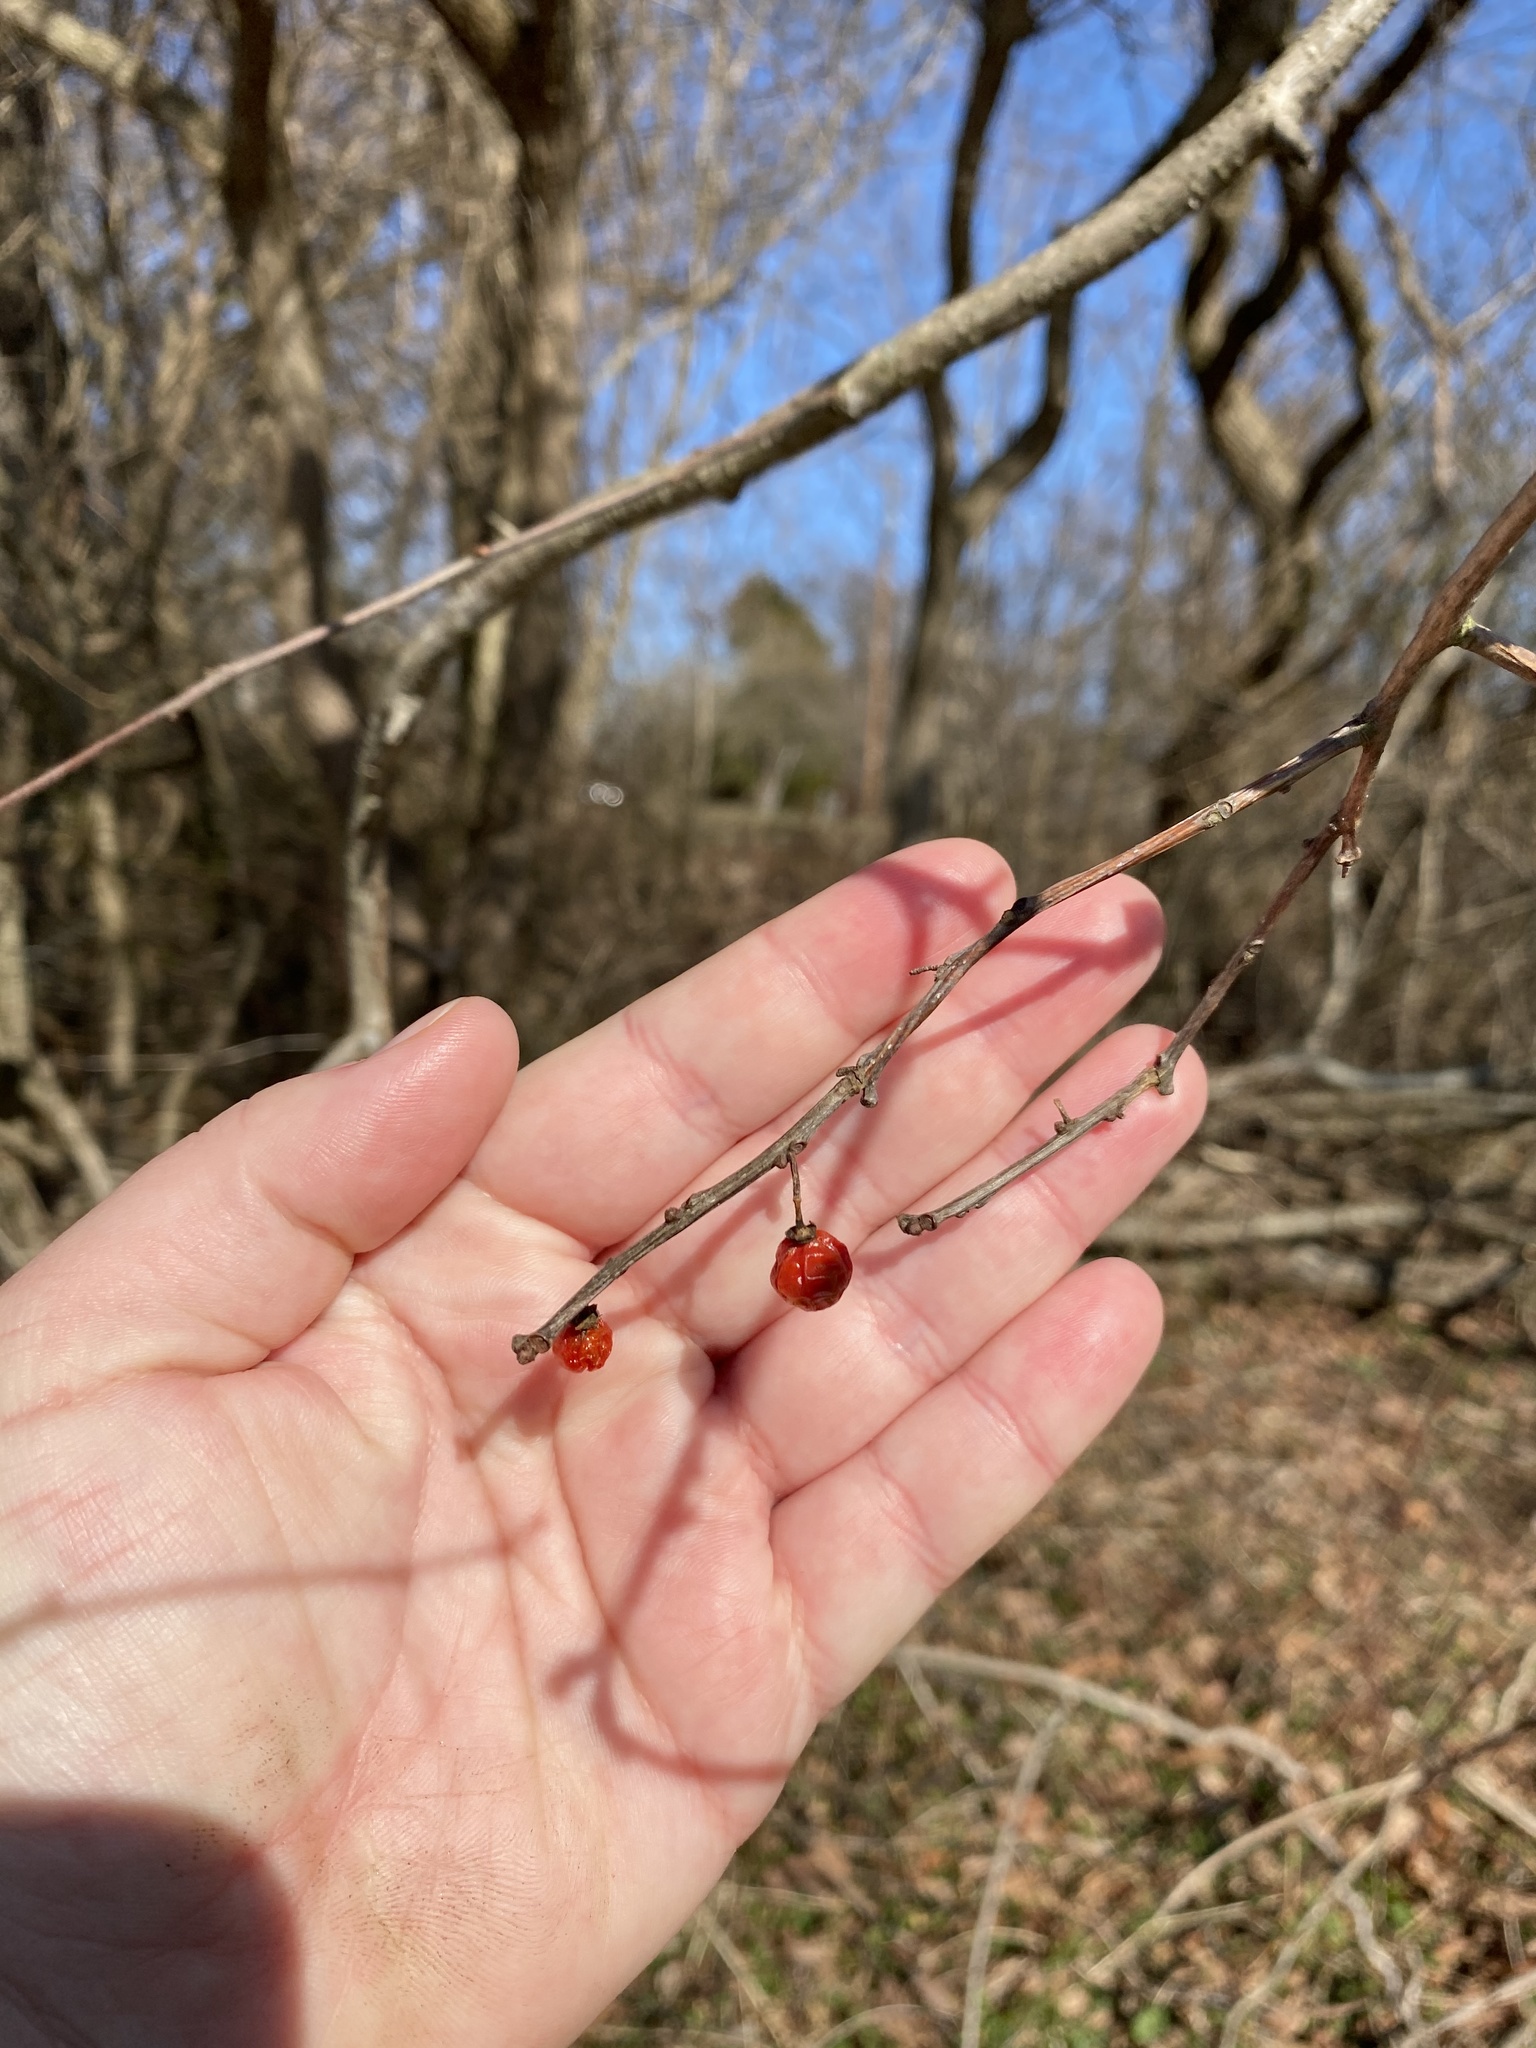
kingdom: Plantae
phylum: Tracheophyta
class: Magnoliopsida
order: Celastrales
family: Celastraceae
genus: Celastrus
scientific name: Celastrus orbiculatus
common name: Oriental bittersweet
